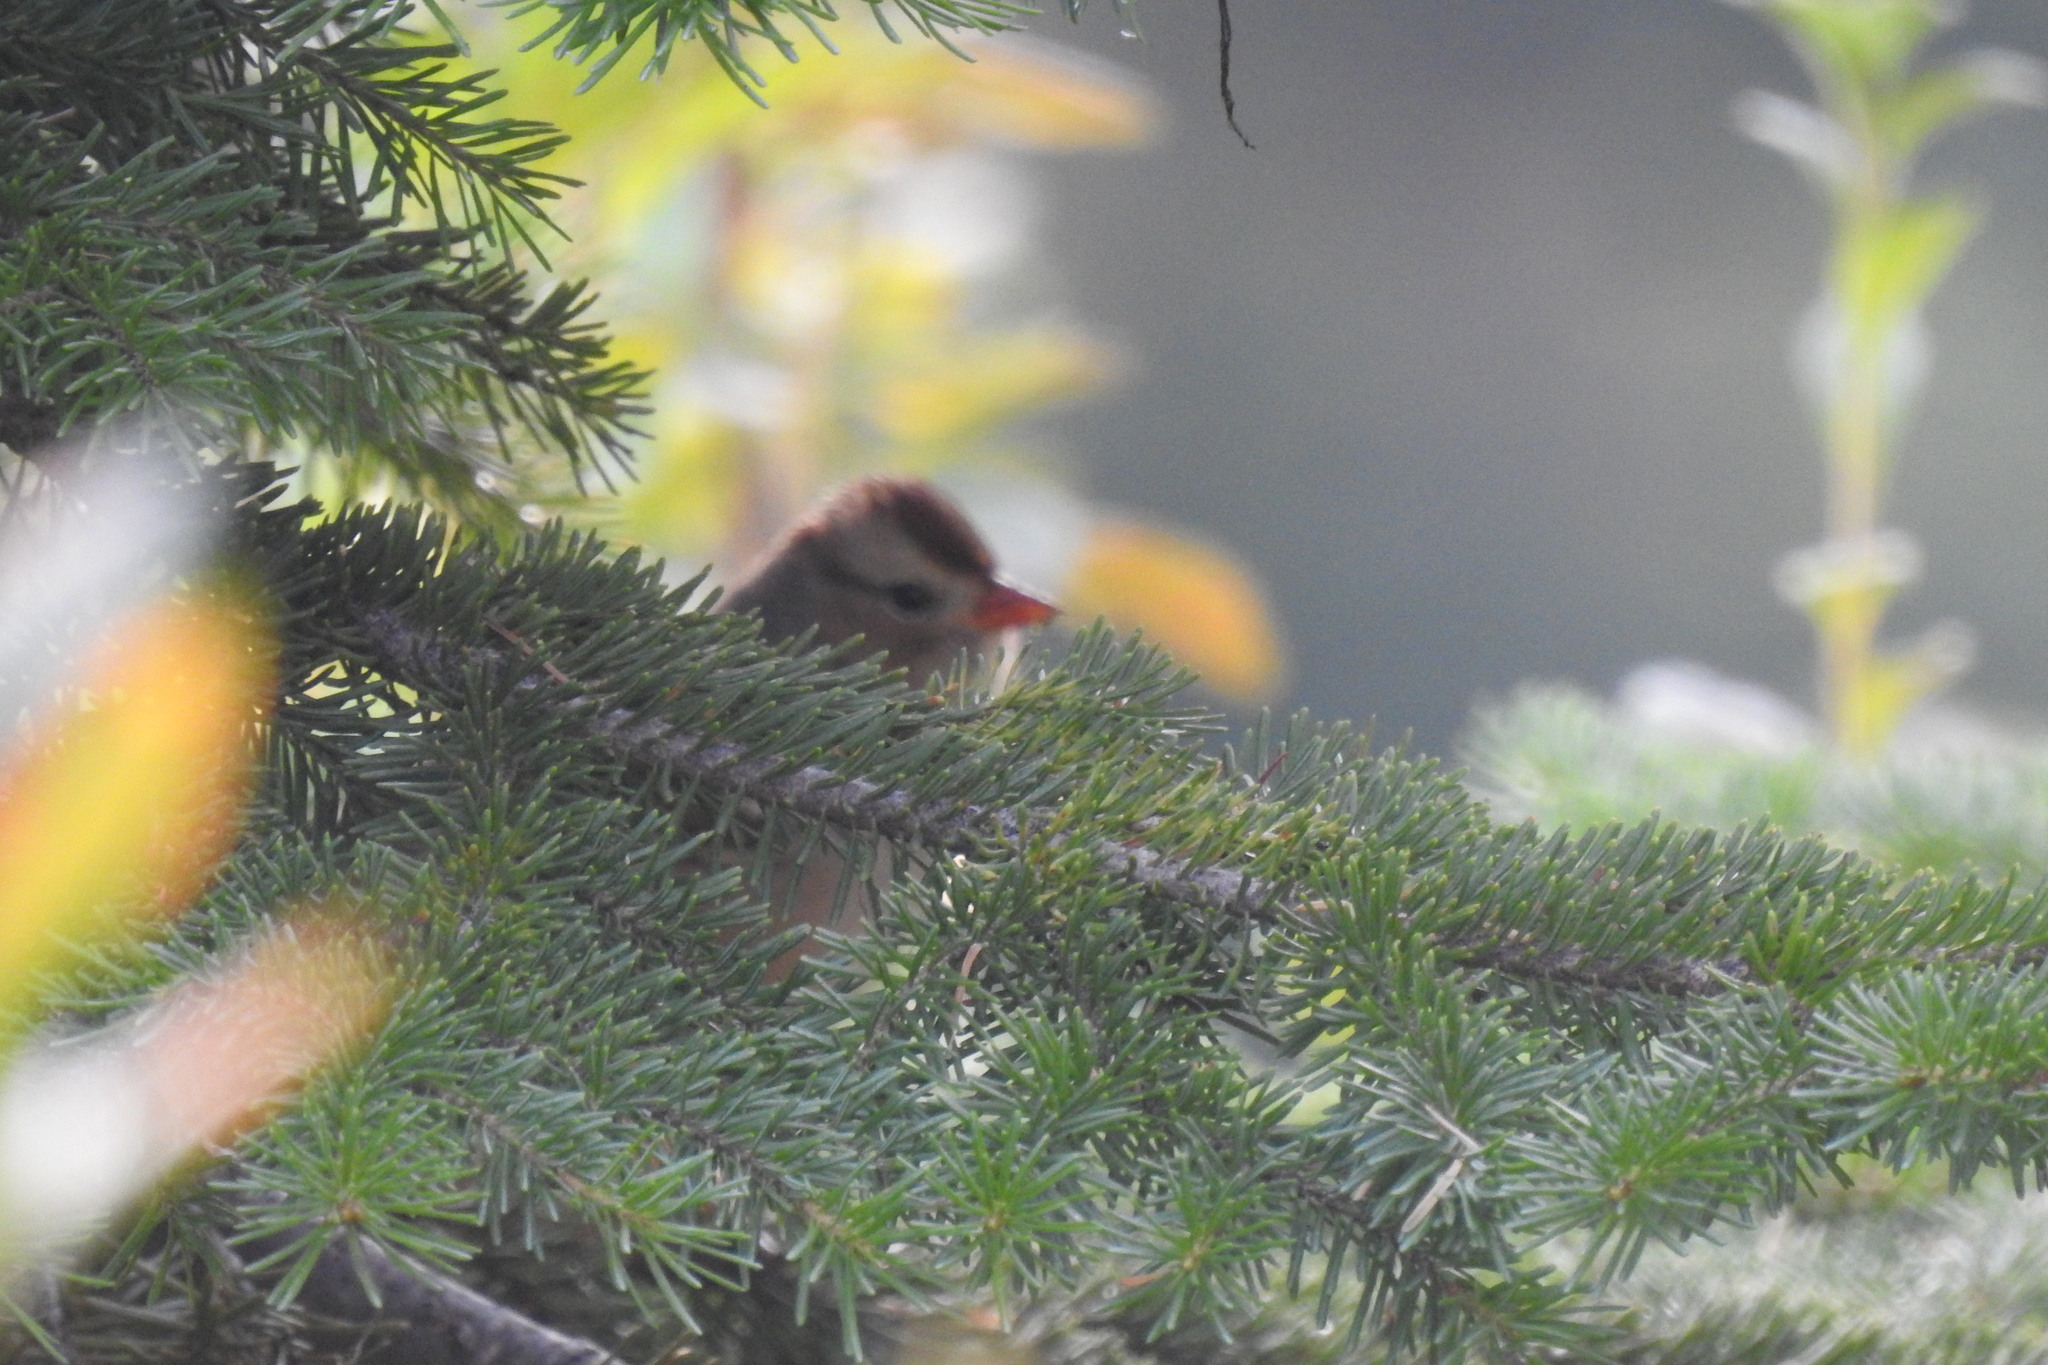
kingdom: Animalia
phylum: Chordata
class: Aves
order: Passeriformes
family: Passerellidae
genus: Zonotrichia
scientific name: Zonotrichia leucophrys
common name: White-crowned sparrow
